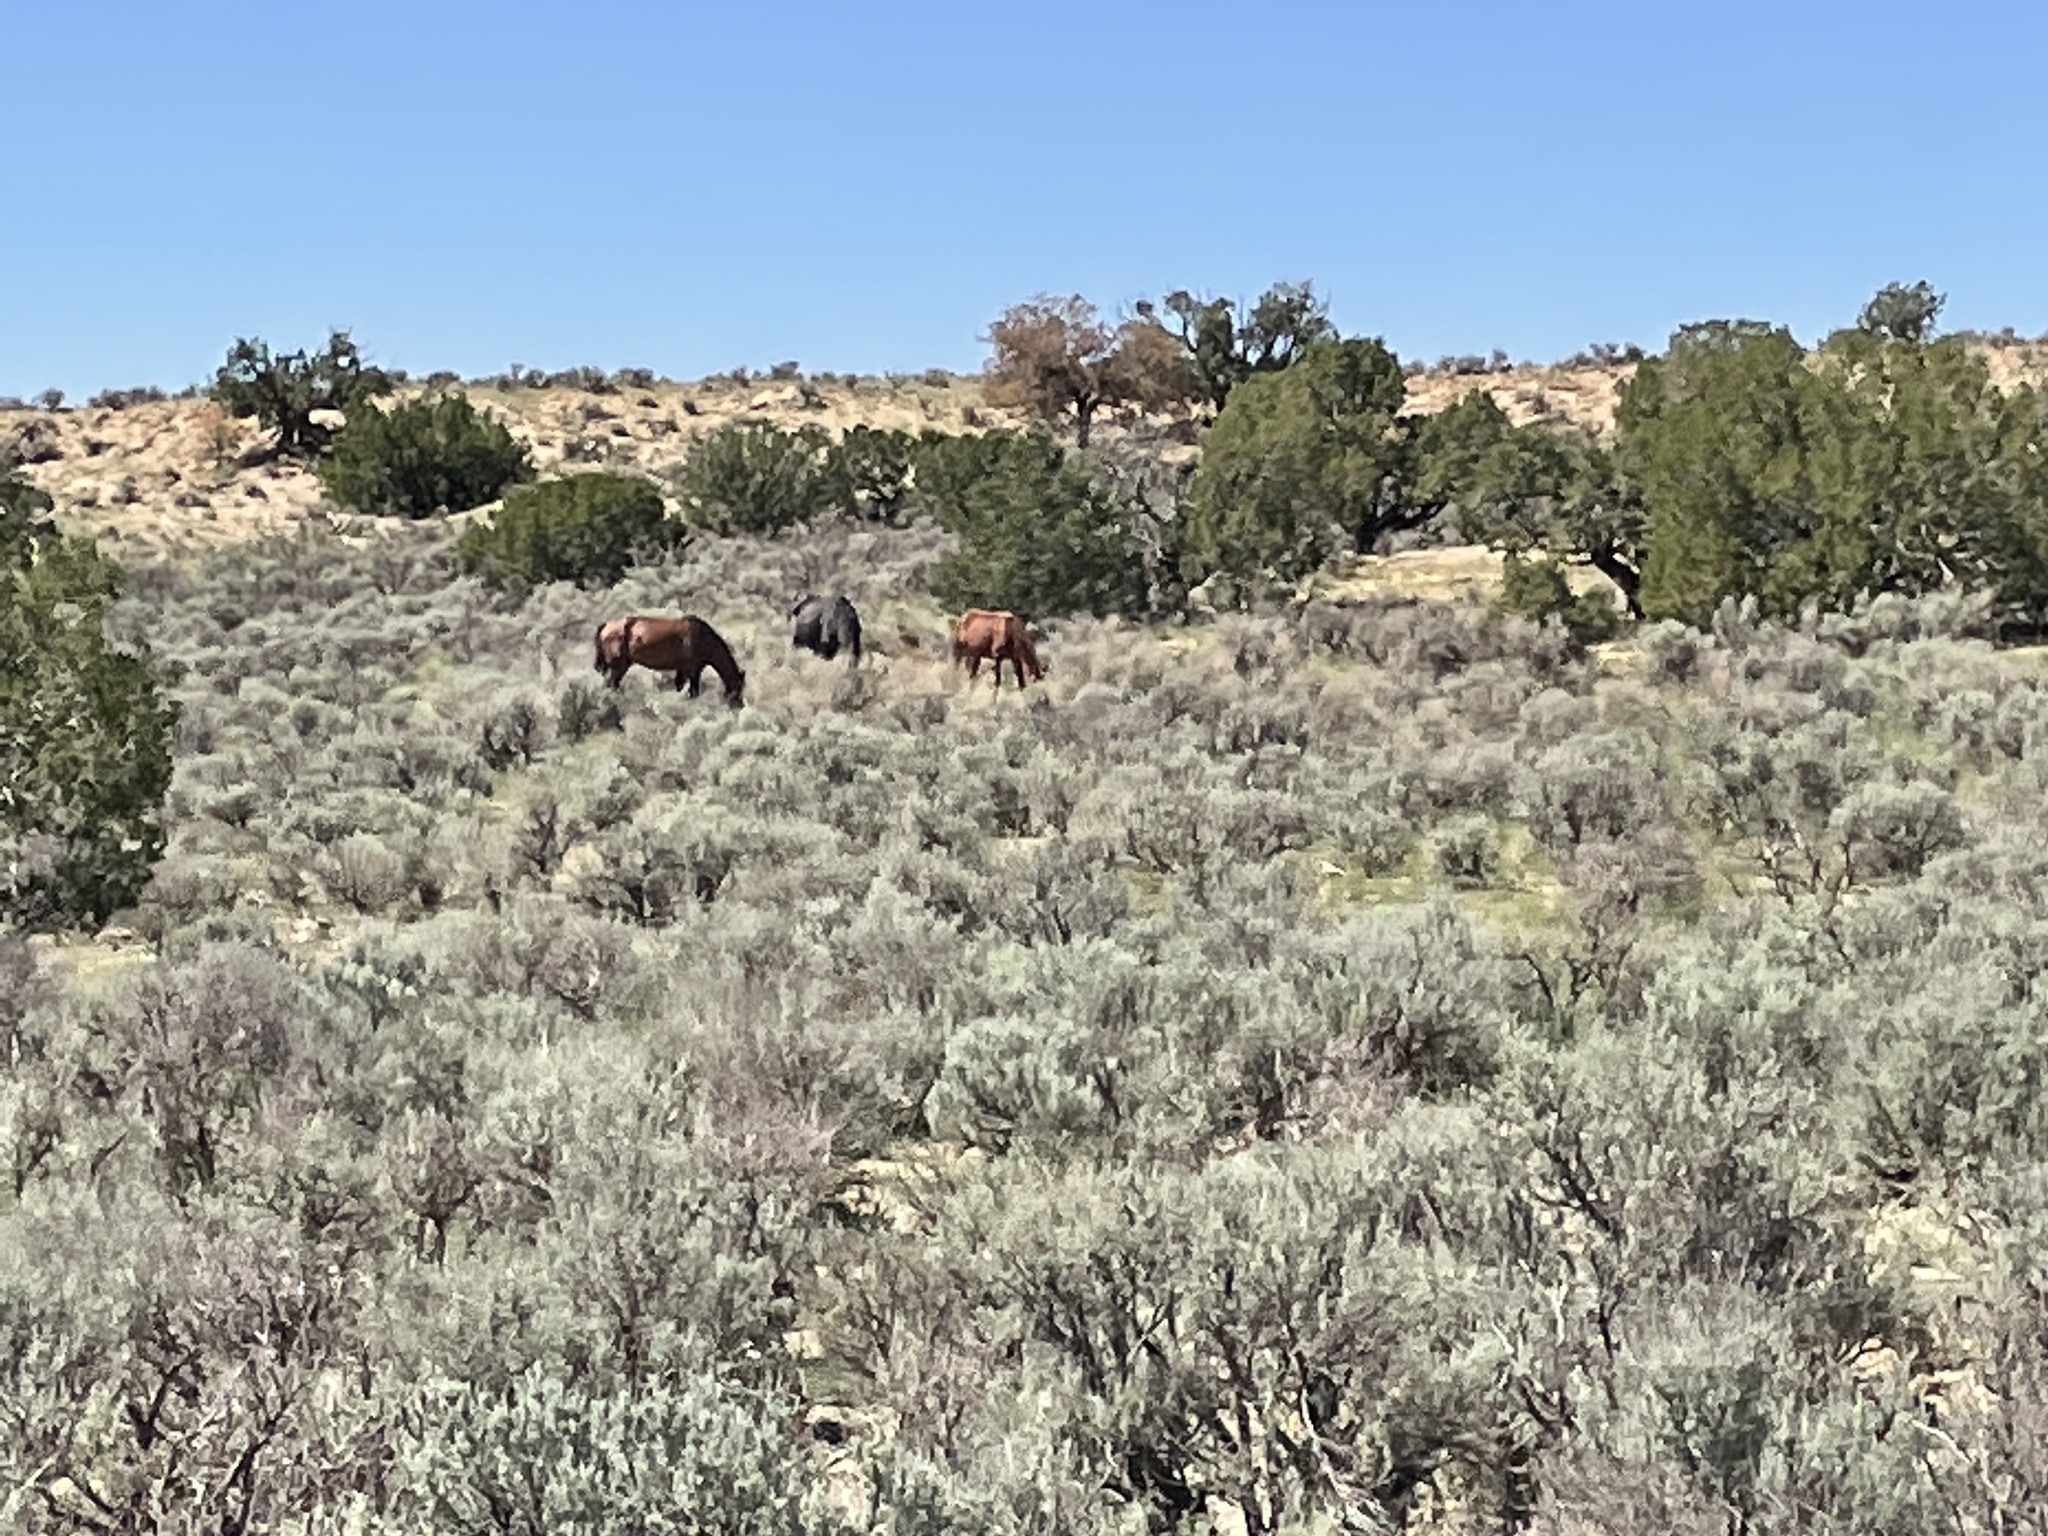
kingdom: Animalia
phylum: Chordata
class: Mammalia
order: Perissodactyla
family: Equidae
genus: Equus
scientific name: Equus caballus
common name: Horse
